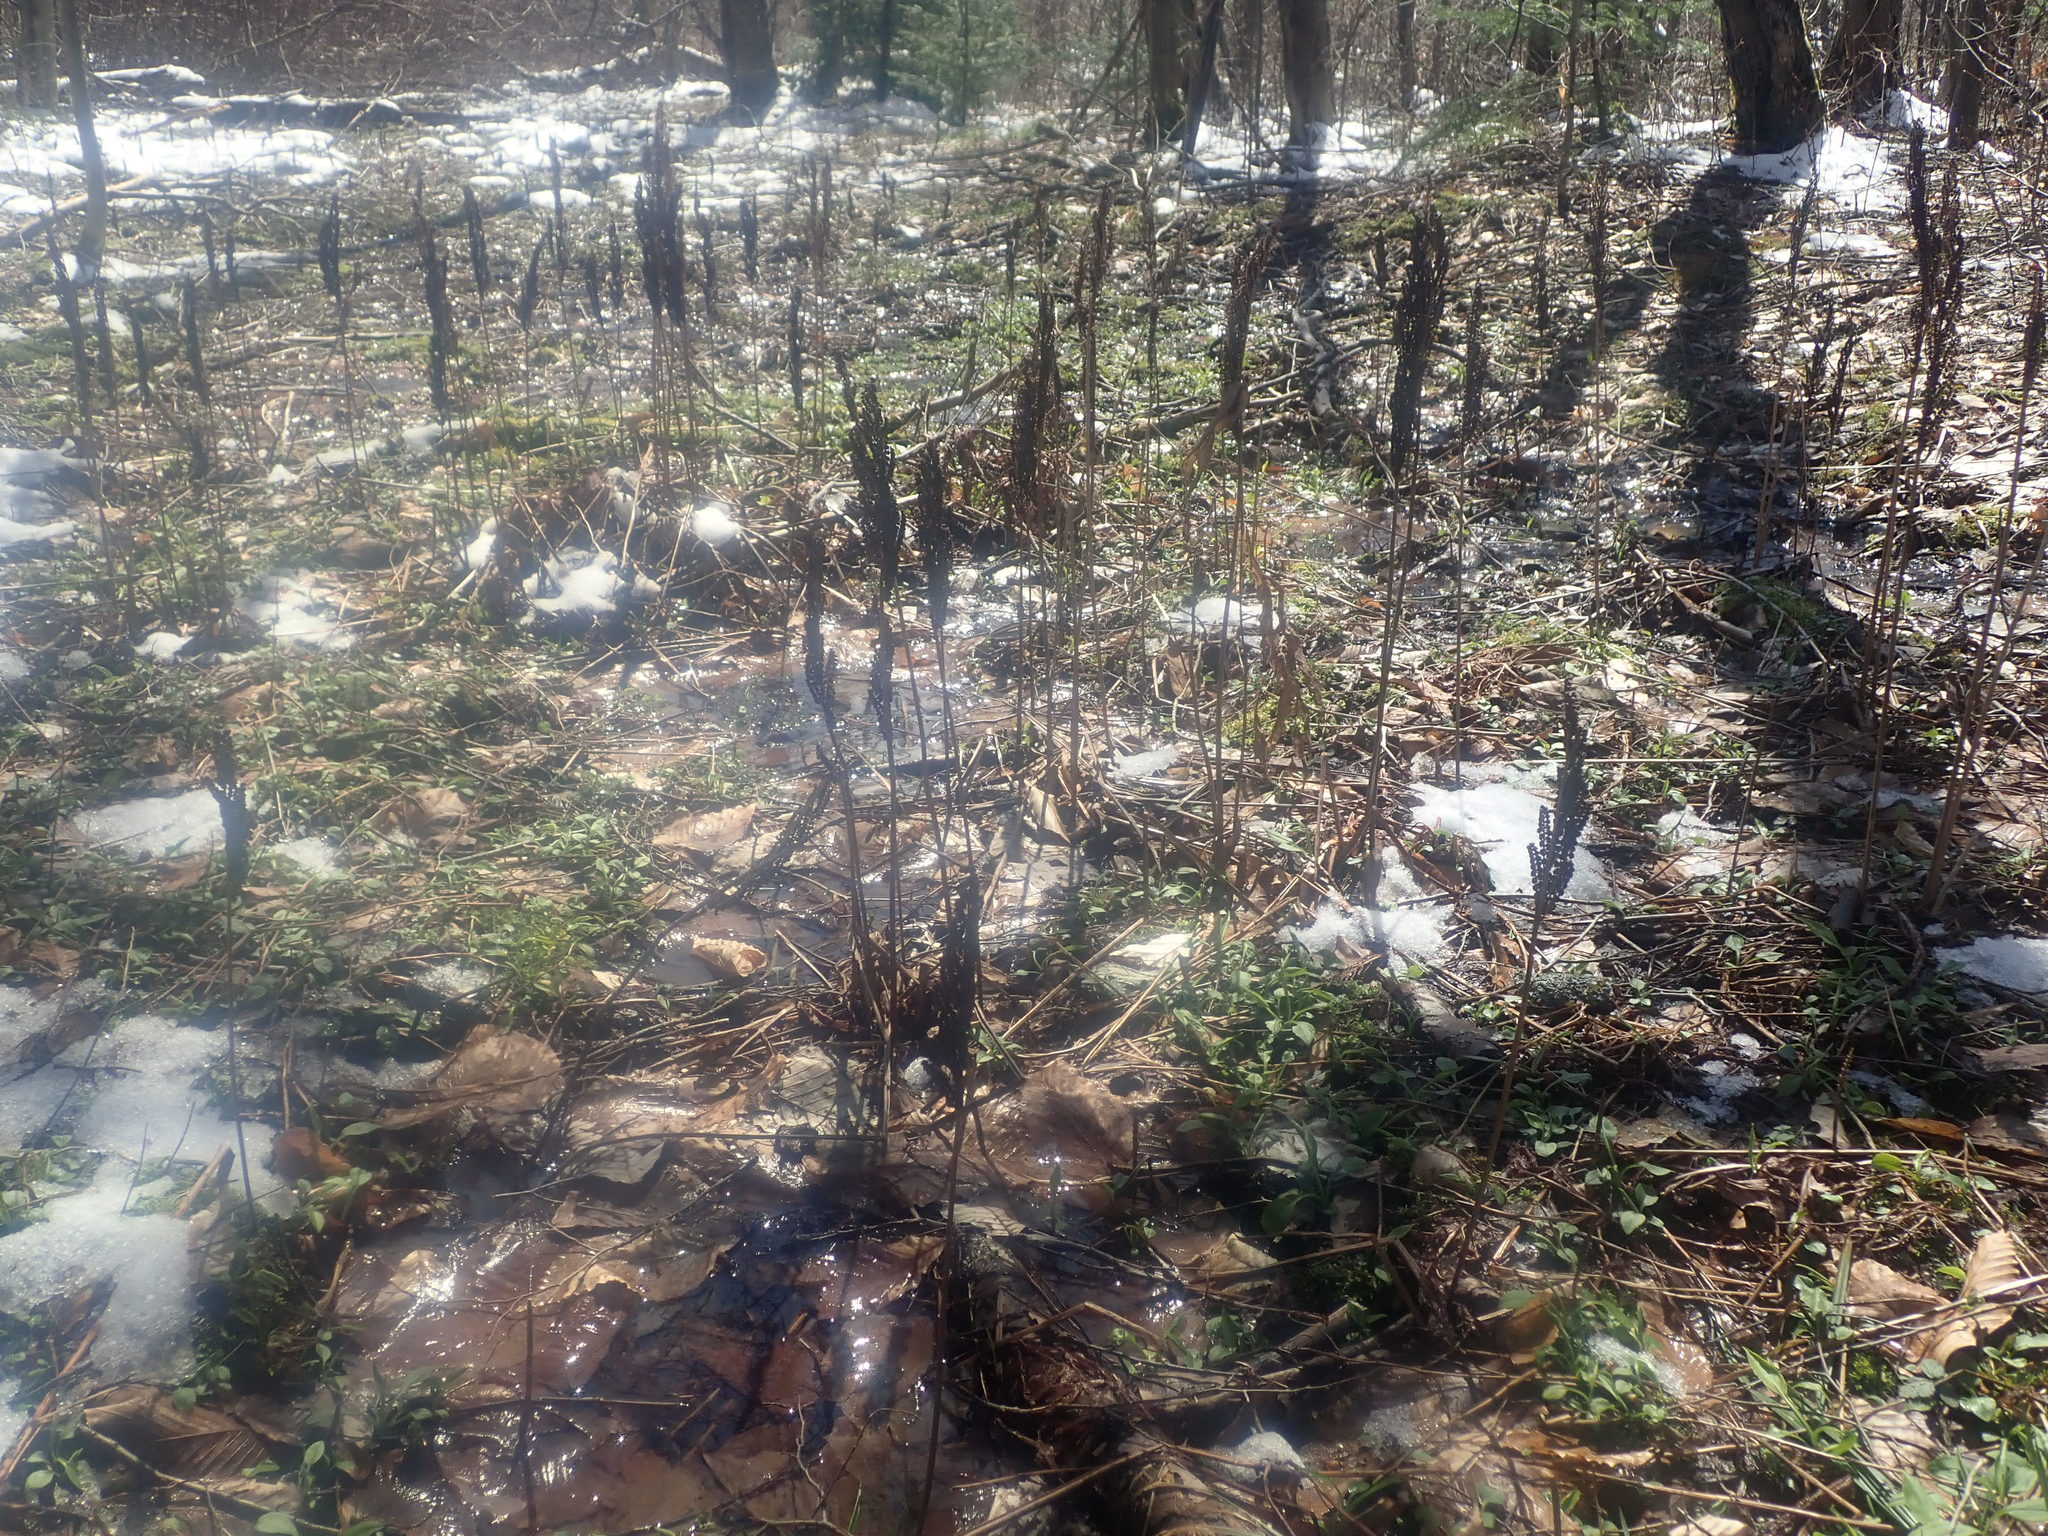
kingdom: Plantae
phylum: Tracheophyta
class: Polypodiopsida
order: Polypodiales
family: Onocleaceae
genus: Onoclea
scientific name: Onoclea sensibilis
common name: Sensitive fern
